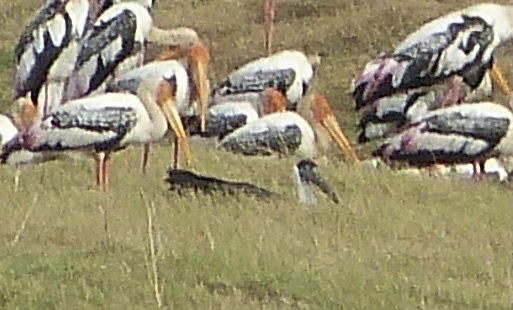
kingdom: Animalia
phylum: Chordata
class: Aves
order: Ciconiiformes
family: Ciconiidae
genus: Ciconia
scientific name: Ciconia episcopus
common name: Woolly-necked stork
